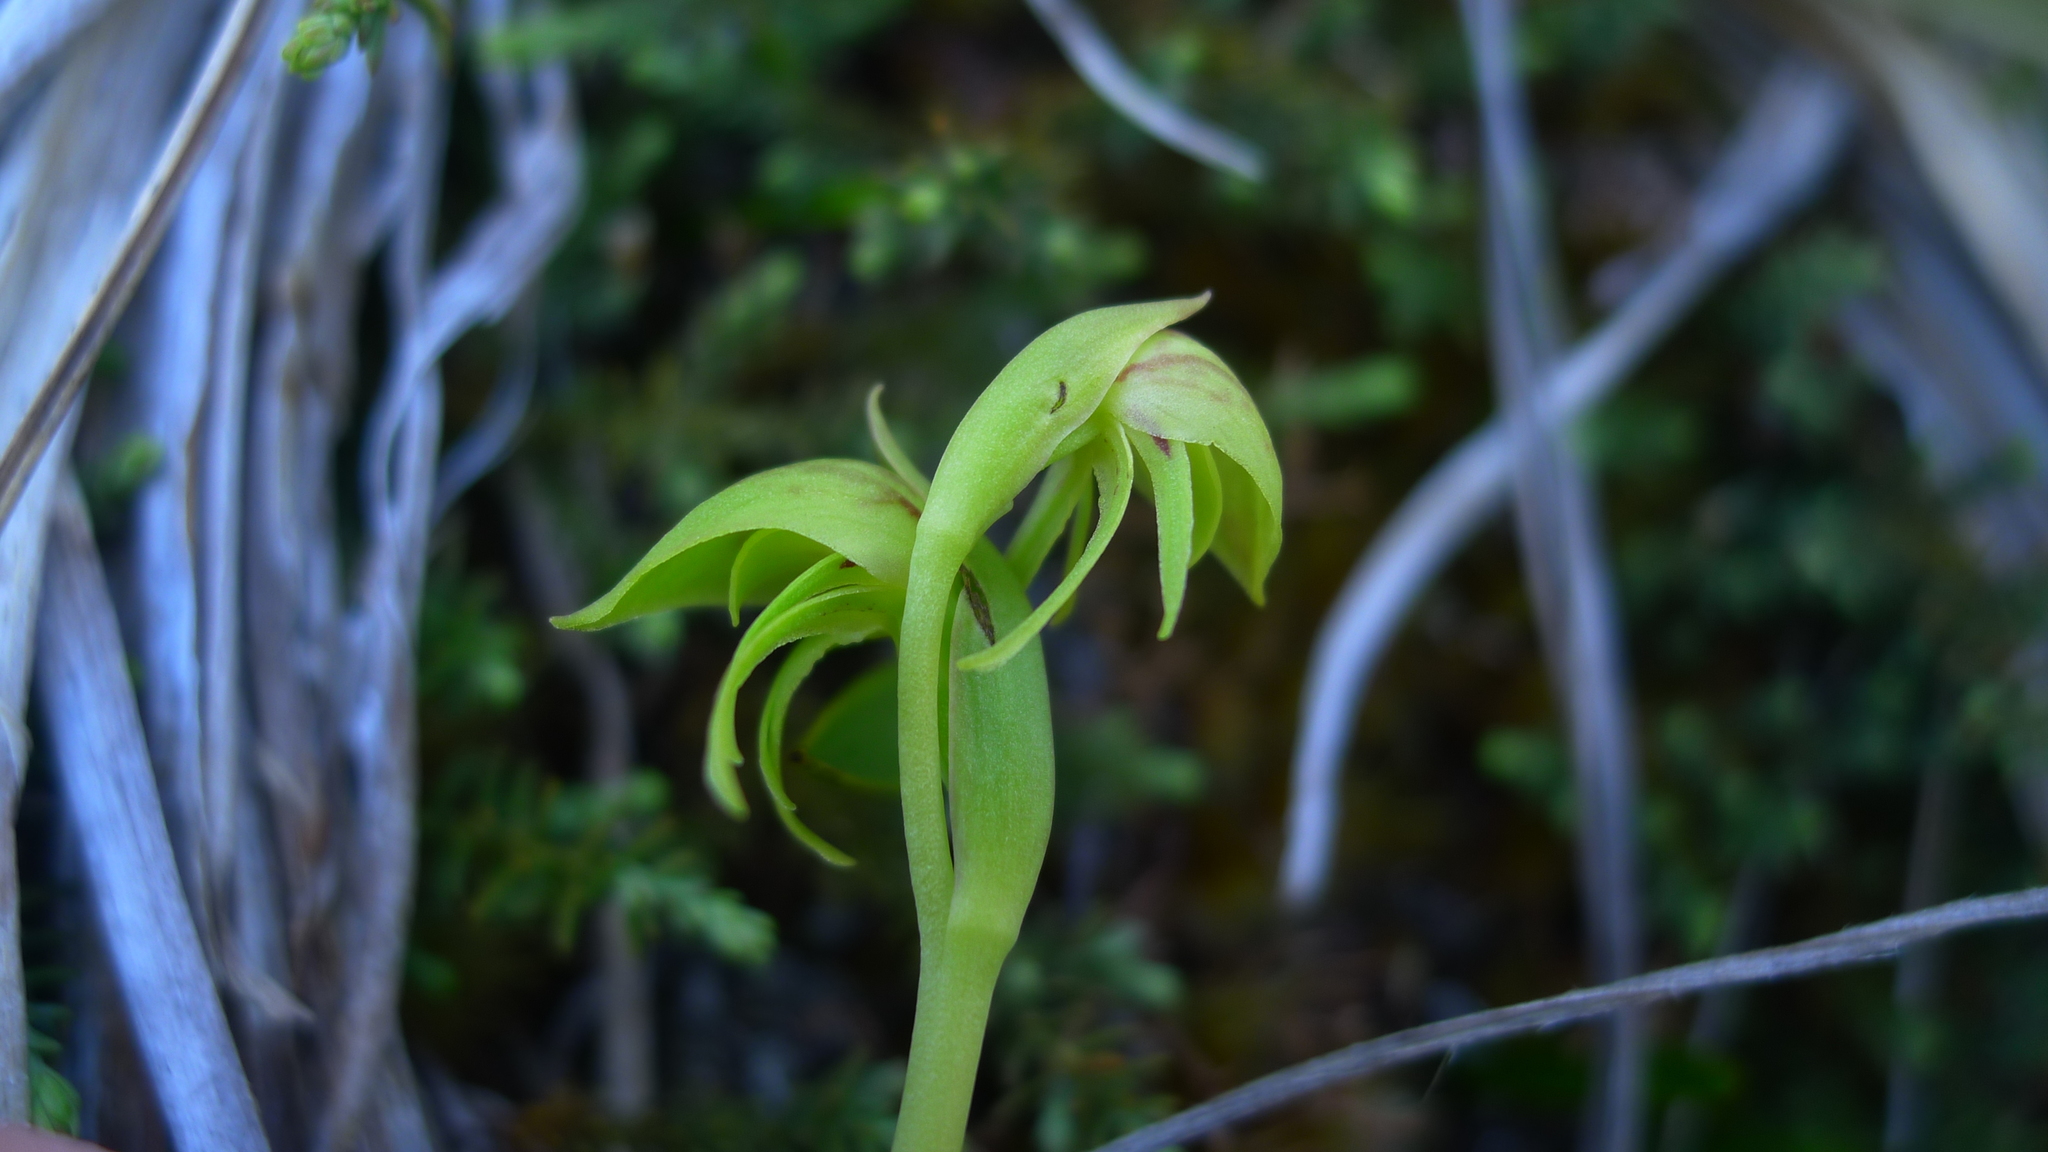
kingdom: Plantae
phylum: Tracheophyta
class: Liliopsida
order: Asparagales
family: Orchidaceae
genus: Waireia
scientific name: Waireia stenopetala
